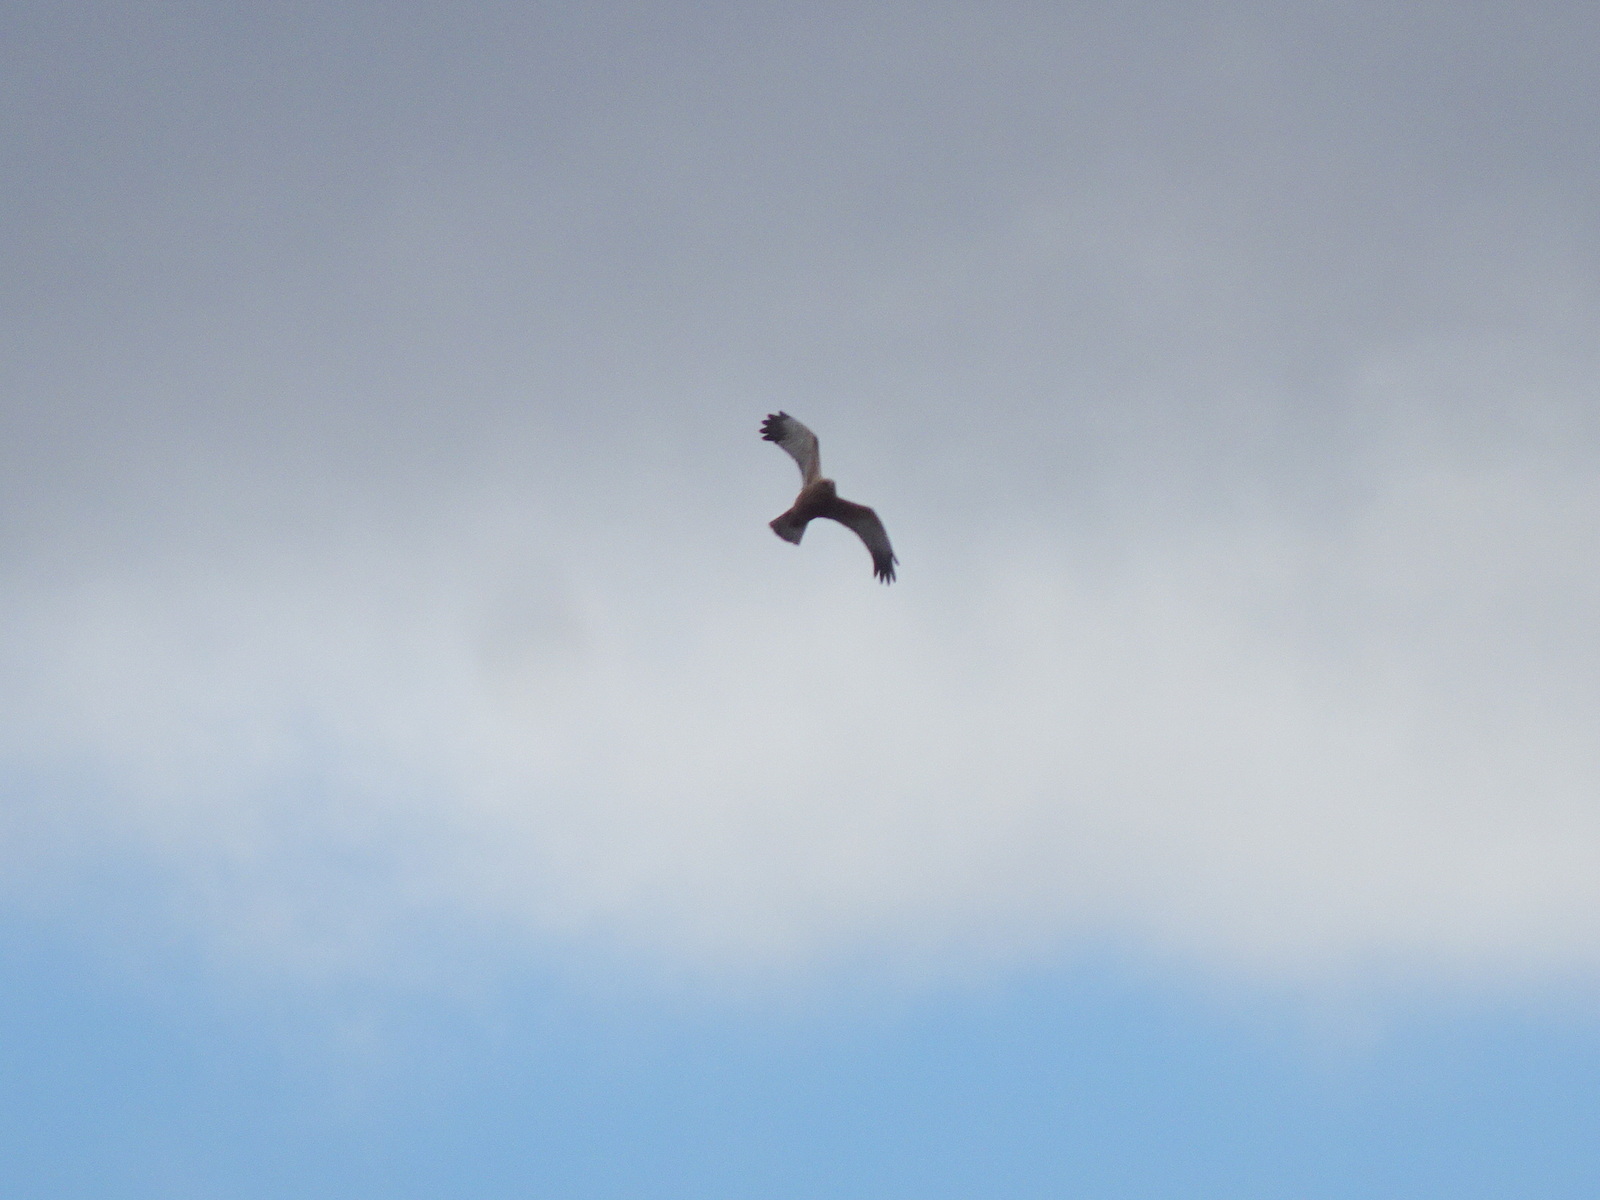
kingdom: Animalia
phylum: Chordata
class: Aves
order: Accipitriformes
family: Accipitridae
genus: Circus
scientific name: Circus aeruginosus
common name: Western marsh harrier
